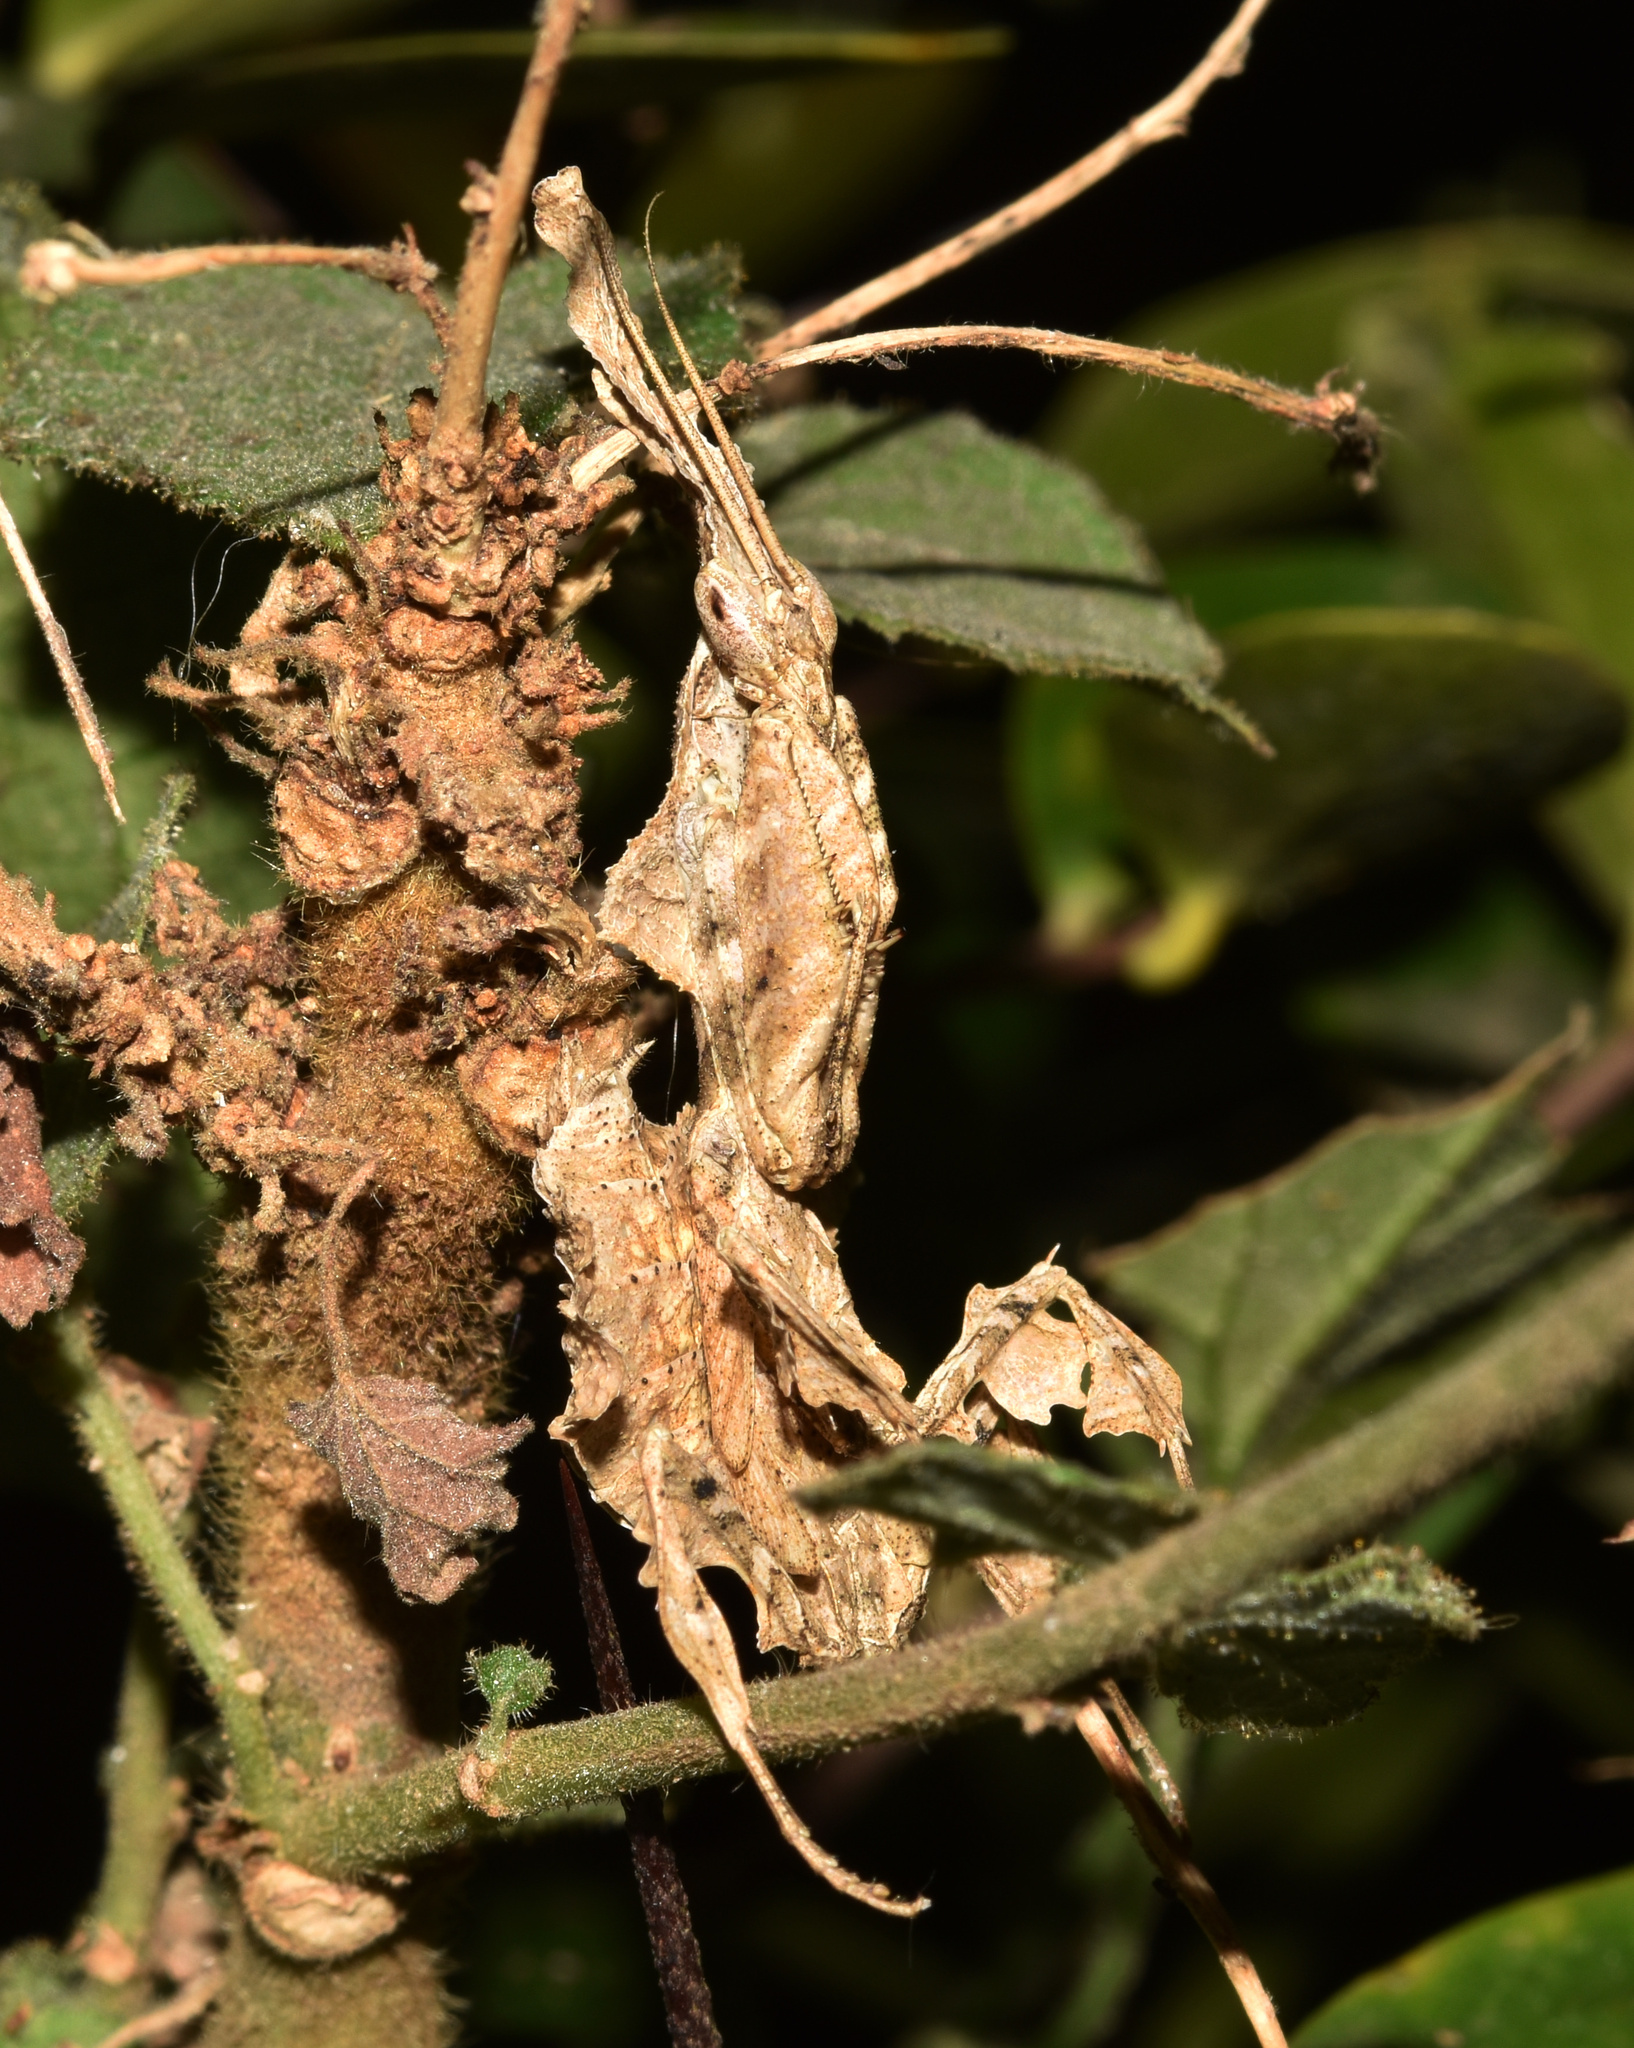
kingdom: Animalia
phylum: Arthropoda
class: Insecta
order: Mantodea
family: Hymenopodidae
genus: Phyllocrania
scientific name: Phyllocrania paradoxa
